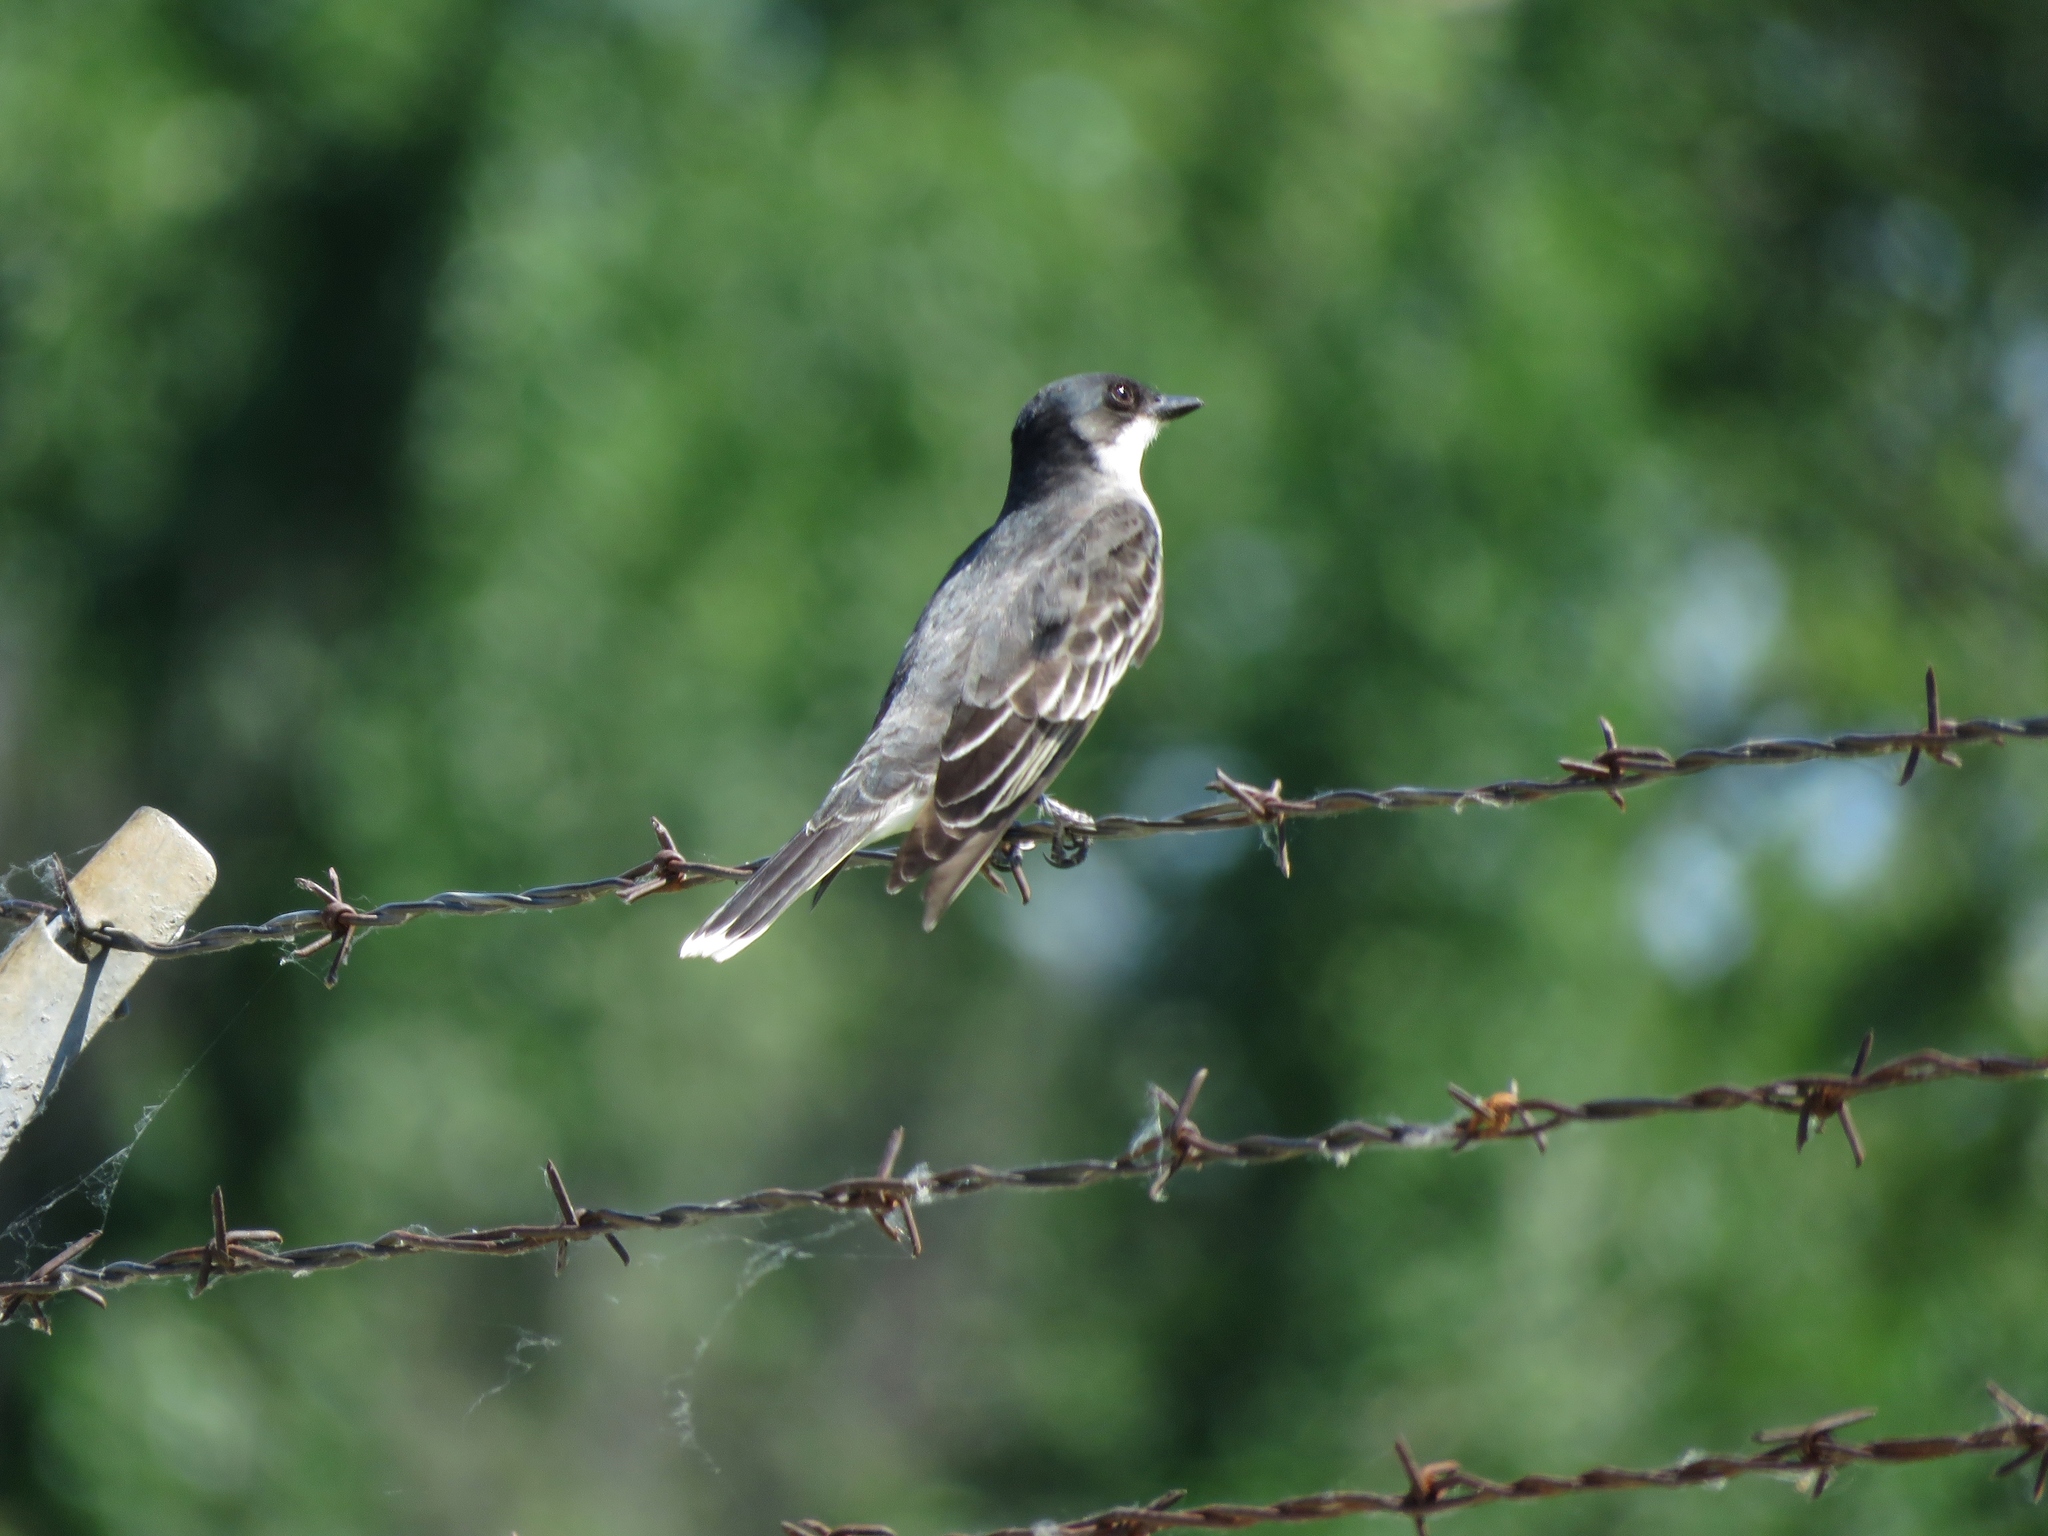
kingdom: Animalia
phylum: Chordata
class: Aves
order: Passeriformes
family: Tyrannidae
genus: Tyrannus
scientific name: Tyrannus tyrannus
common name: Eastern kingbird
